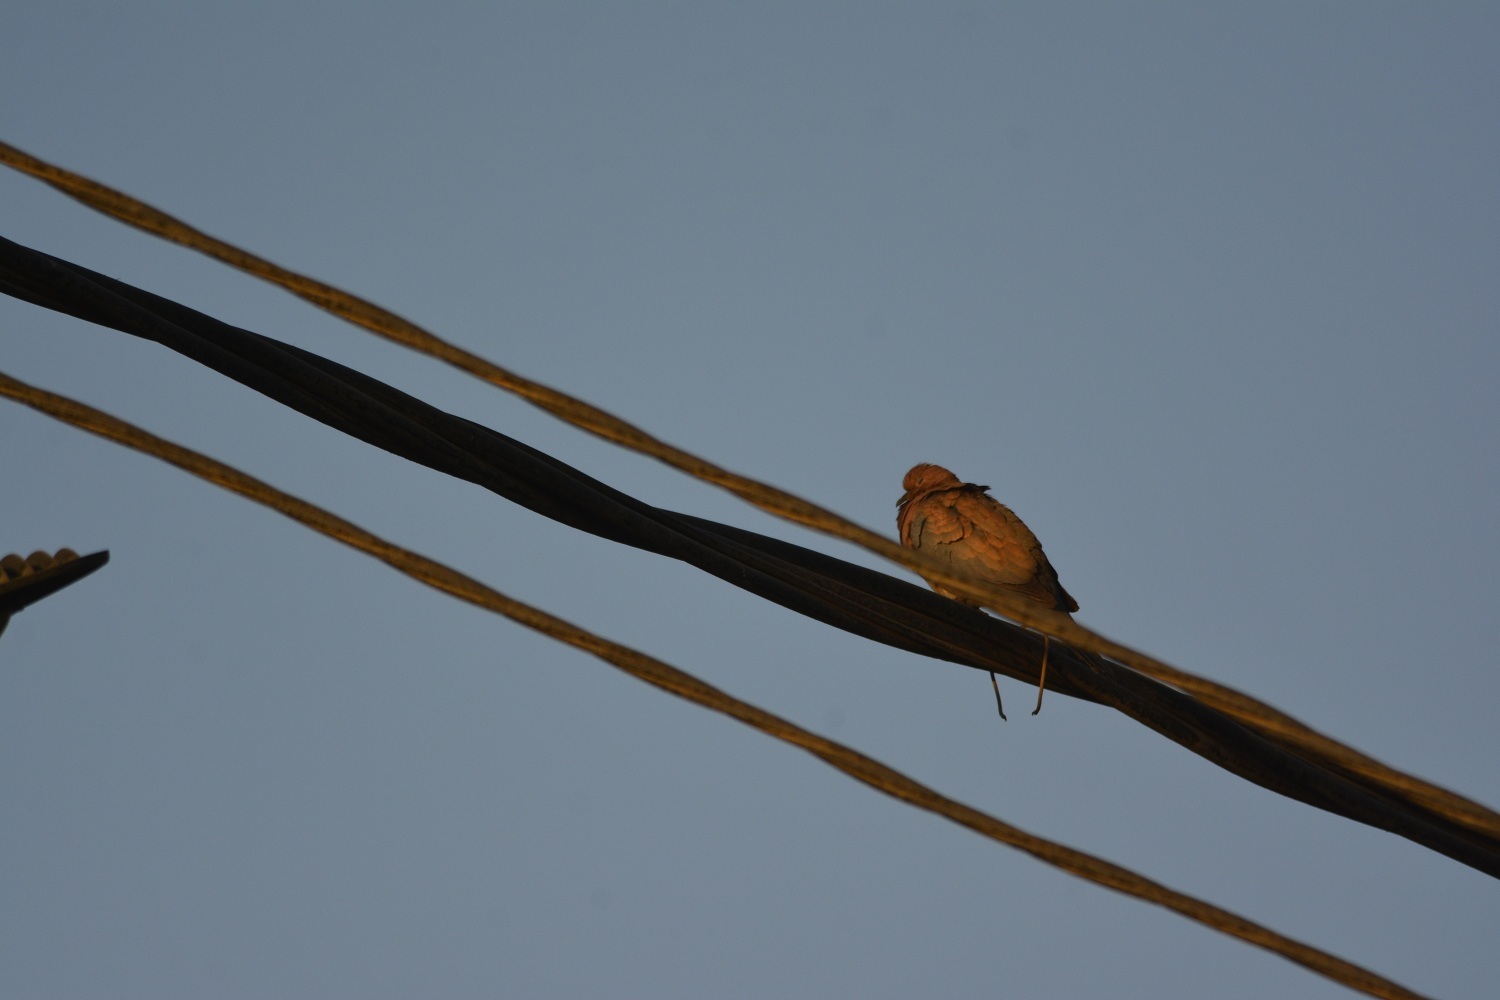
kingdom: Animalia
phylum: Chordata
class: Aves
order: Columbiformes
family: Columbidae
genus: Spilopelia
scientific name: Spilopelia senegalensis
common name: Laughing dove
